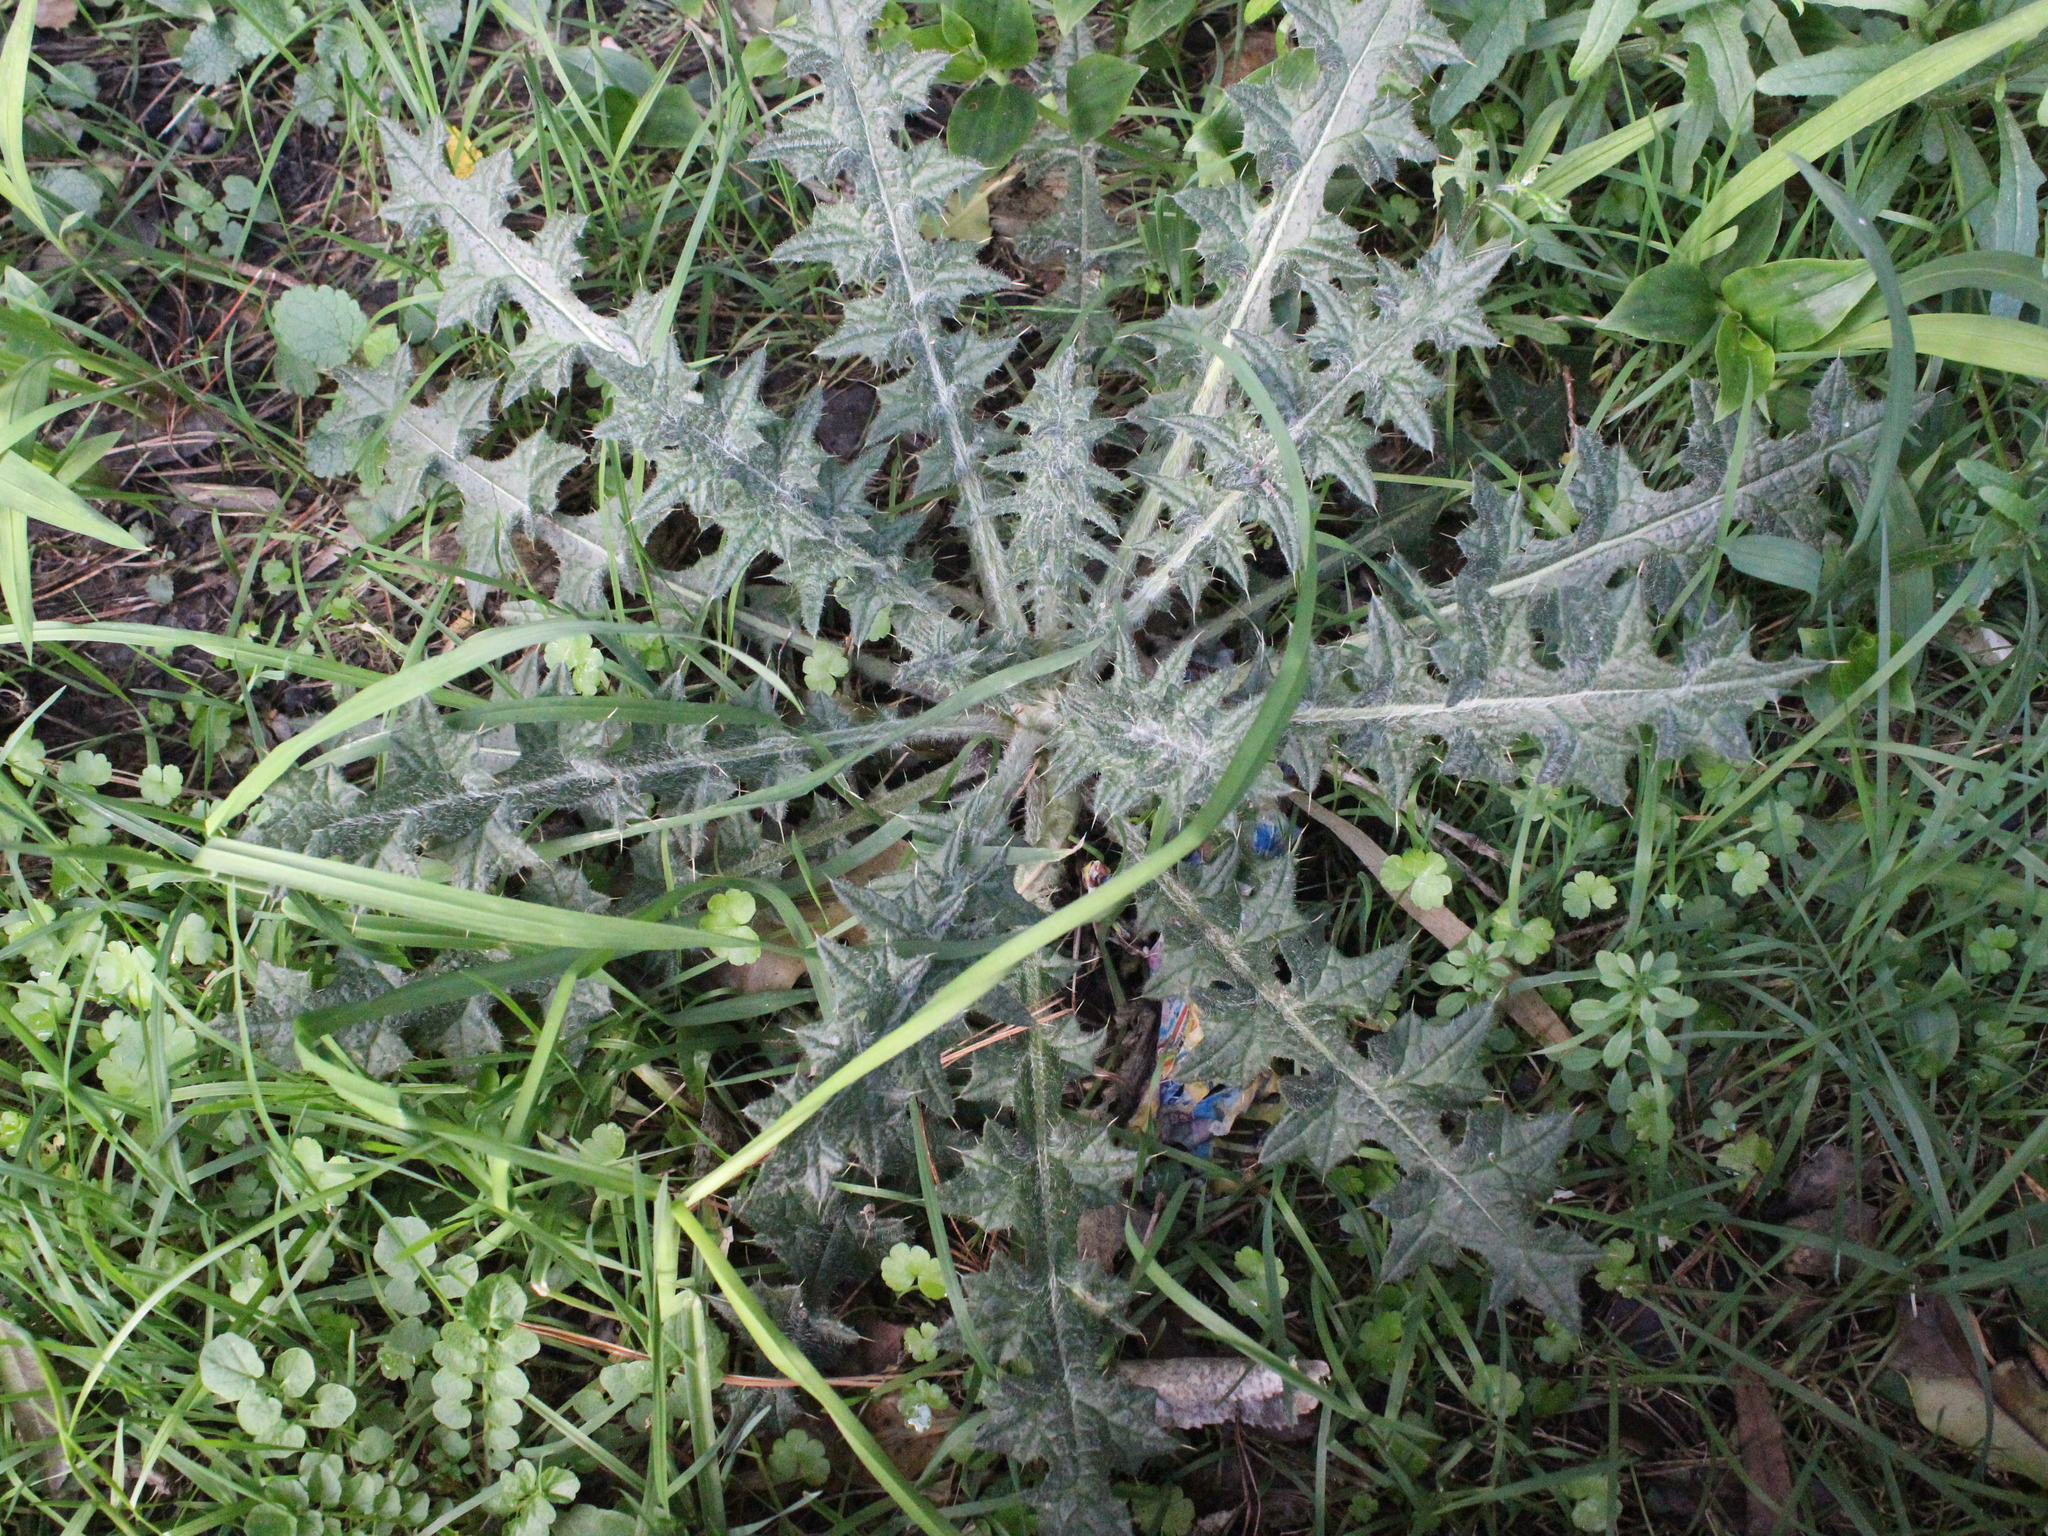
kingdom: Plantae
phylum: Tracheophyta
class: Magnoliopsida
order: Asterales
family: Asteraceae
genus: Cirsium
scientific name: Cirsium vulgare
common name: Bull thistle
